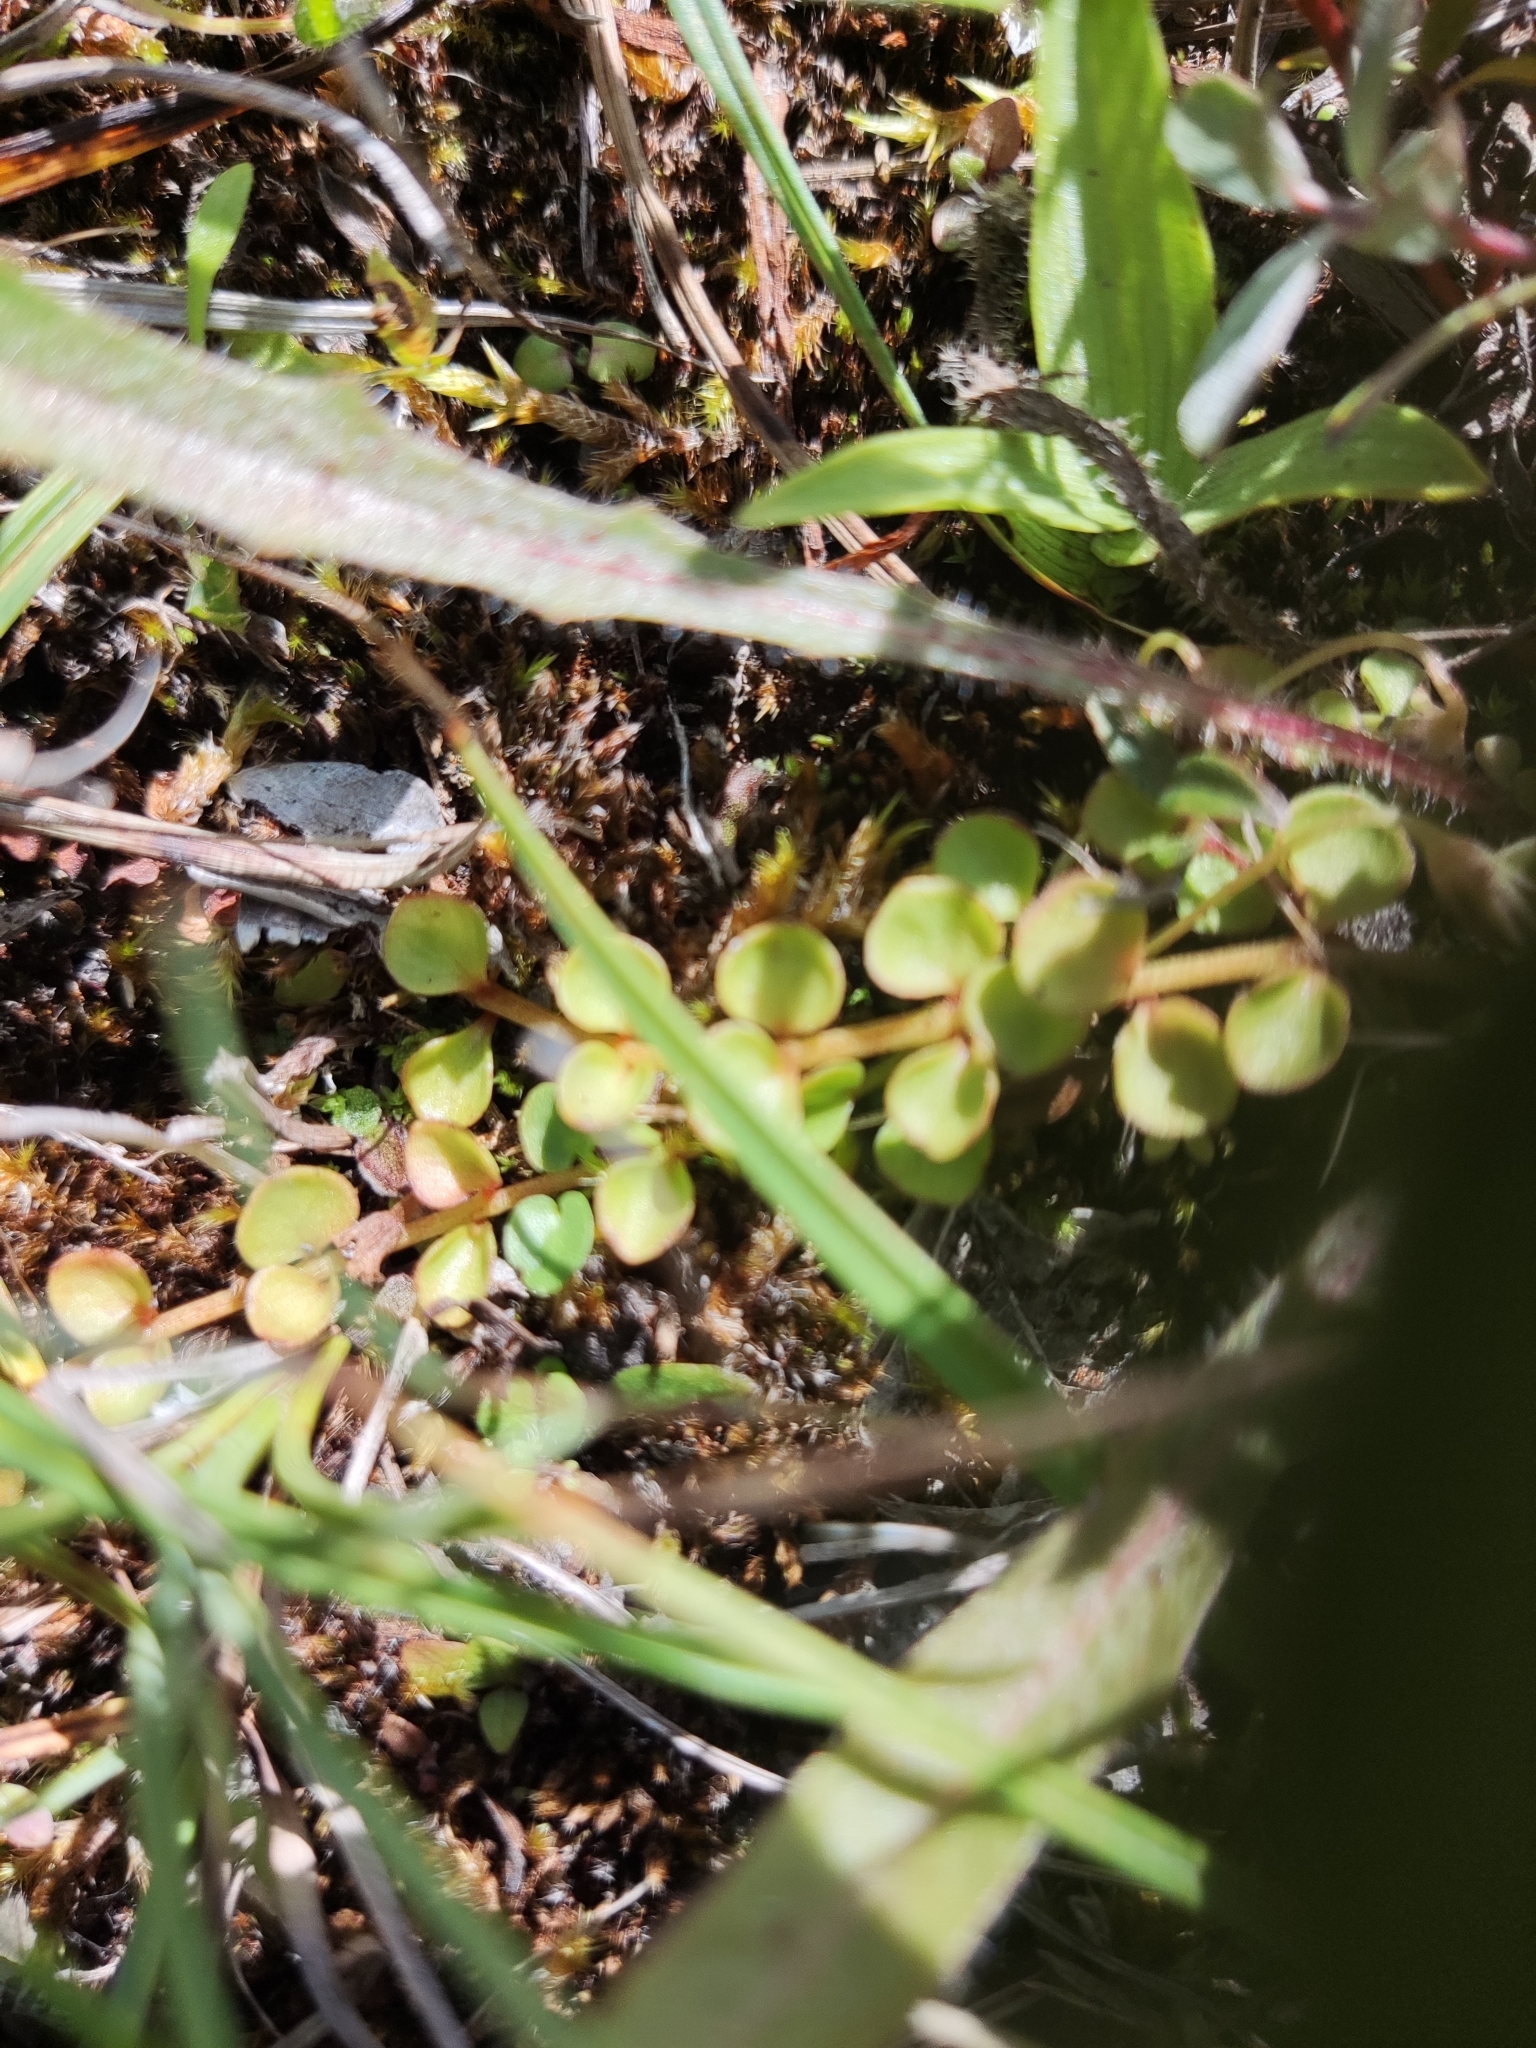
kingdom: Plantae
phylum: Tracheophyta
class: Magnoliopsida
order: Ericales
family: Primulaceae
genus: Lysimachia
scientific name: Lysimachia tenella
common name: European bog pimpernel
